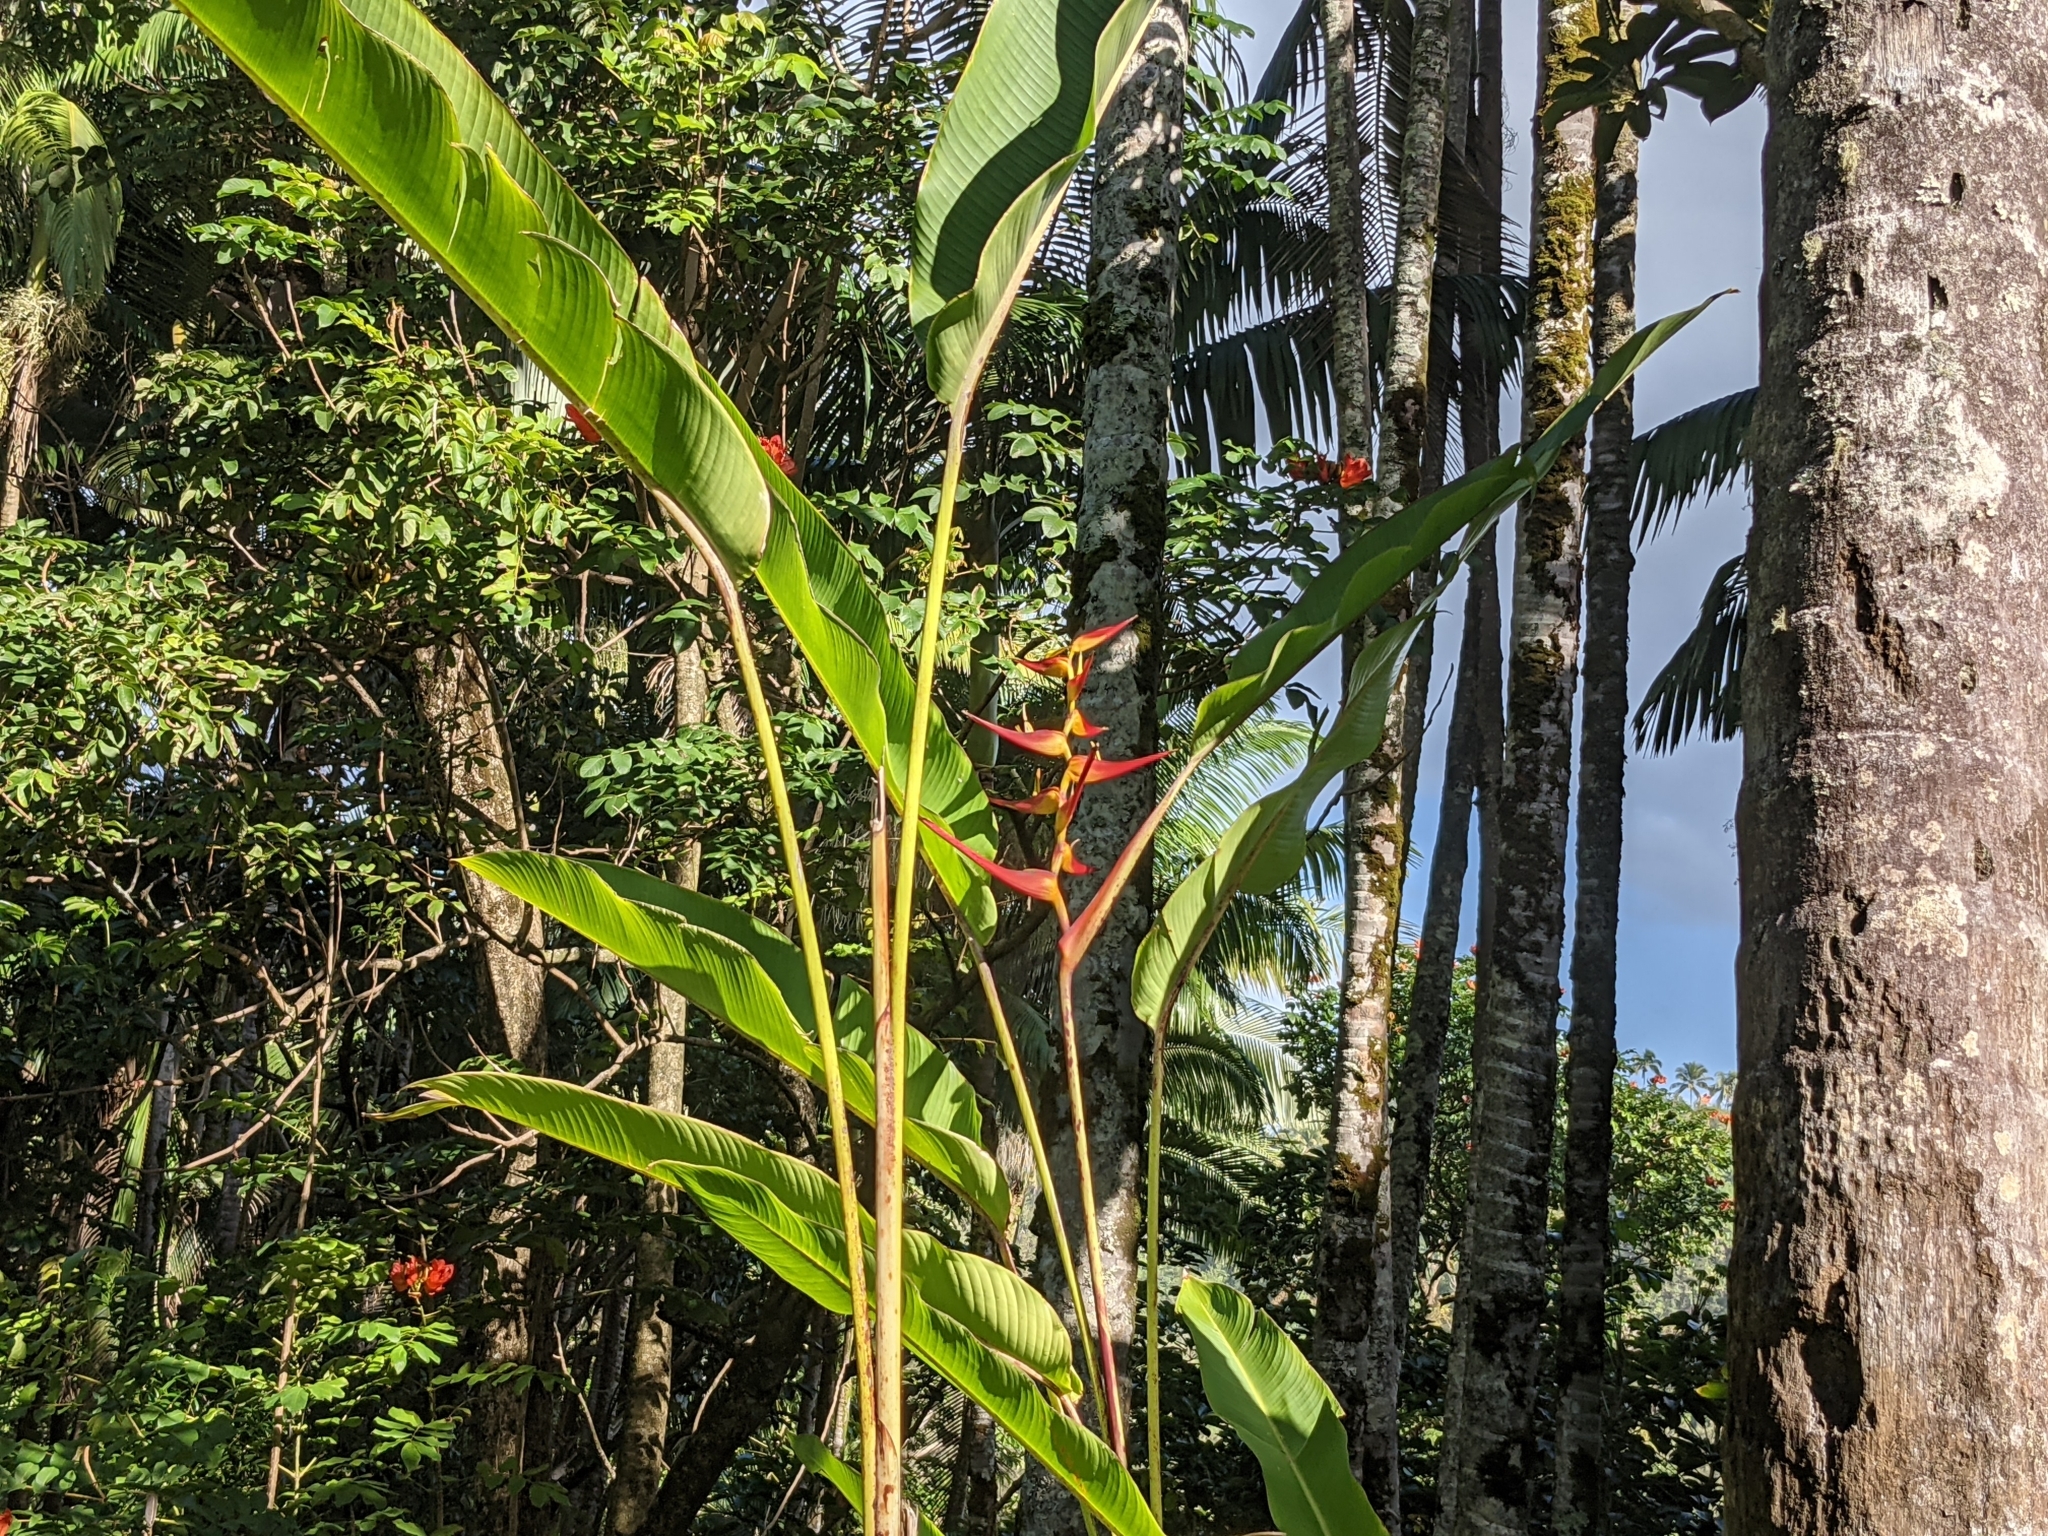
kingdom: Plantae
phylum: Tracheophyta
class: Liliopsida
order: Zingiberales
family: Heliconiaceae
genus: Heliconia
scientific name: Heliconia latispatha
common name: Expanded lobsterclaw
